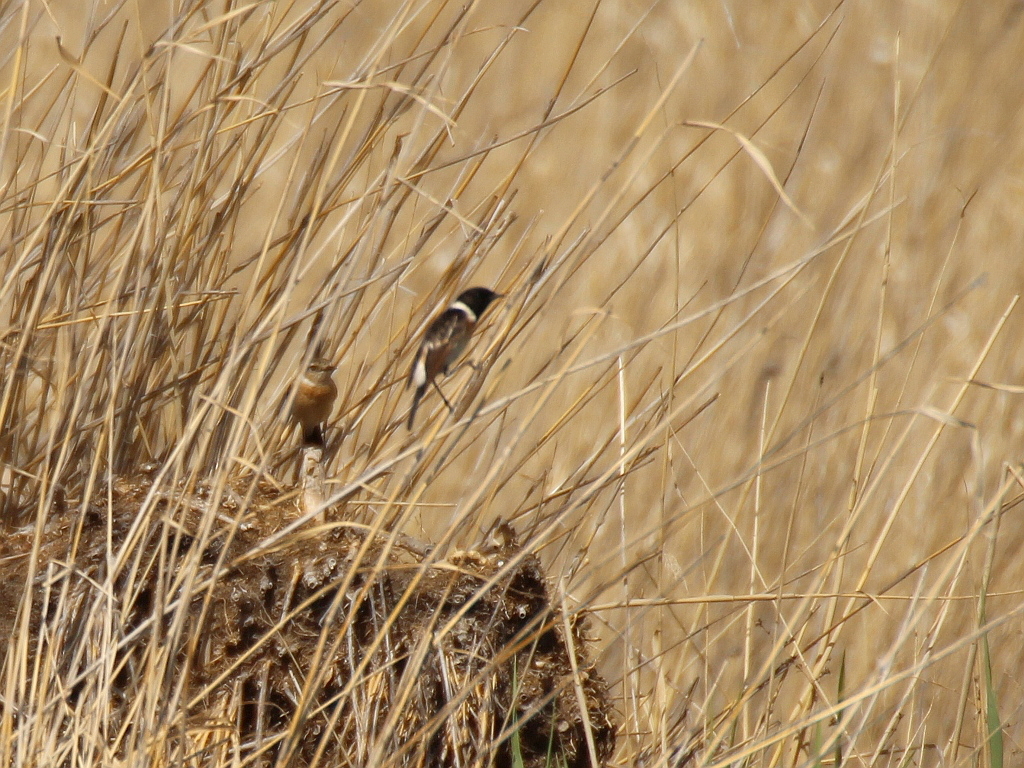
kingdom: Animalia
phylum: Chordata
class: Aves
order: Passeriformes
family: Muscicapidae
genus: Saxicola
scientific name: Saxicola maurus
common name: Siberian stonechat
